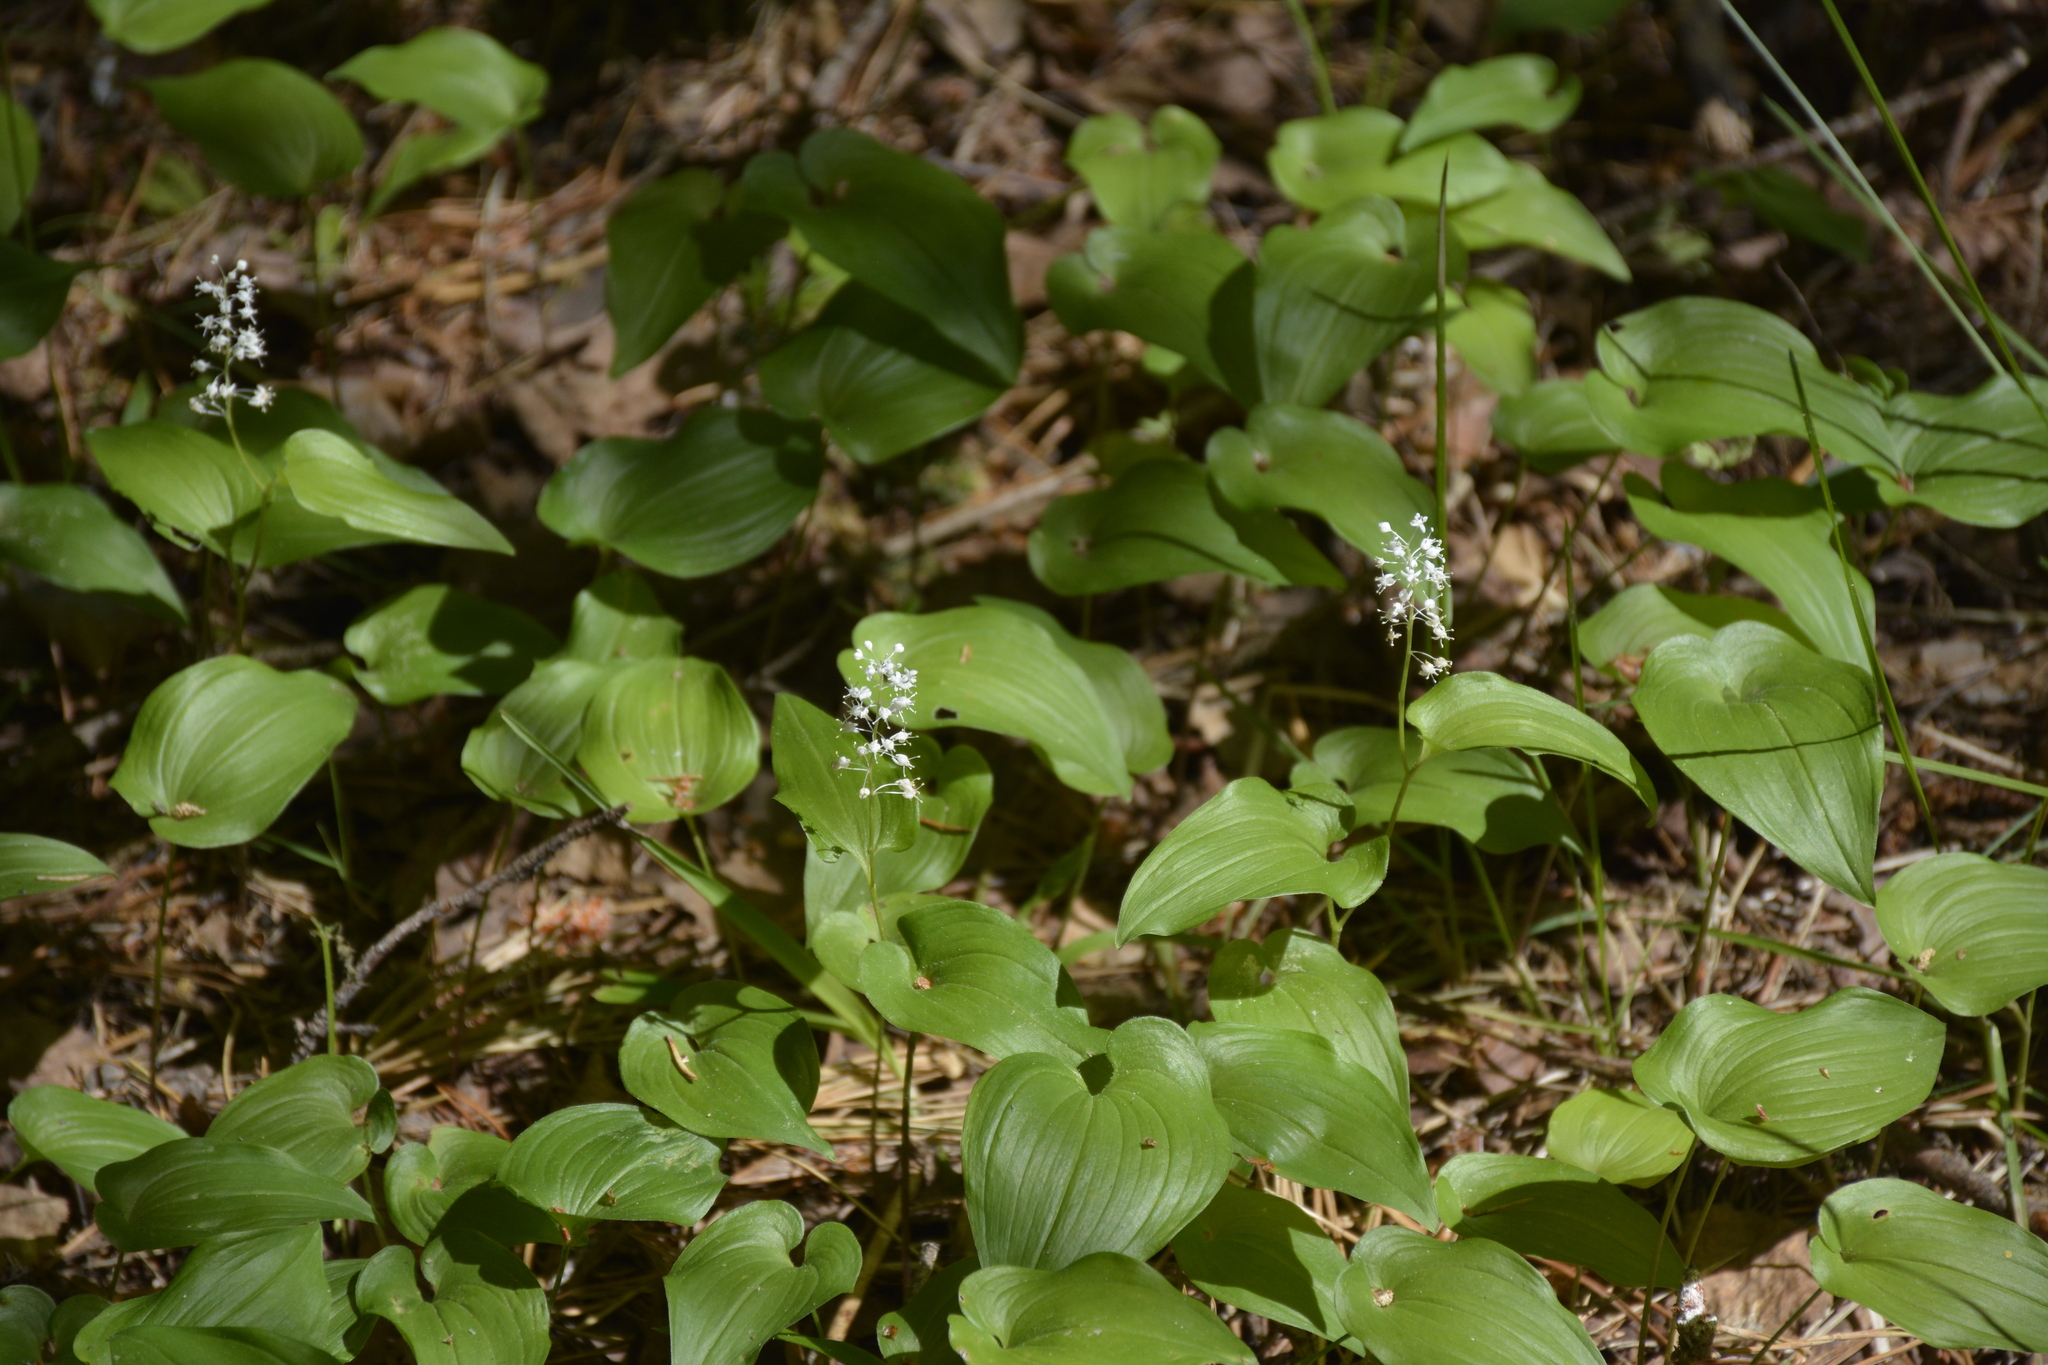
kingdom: Plantae
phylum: Tracheophyta
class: Liliopsida
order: Asparagales
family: Asparagaceae
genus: Maianthemum
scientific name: Maianthemum bifolium
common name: May lily
